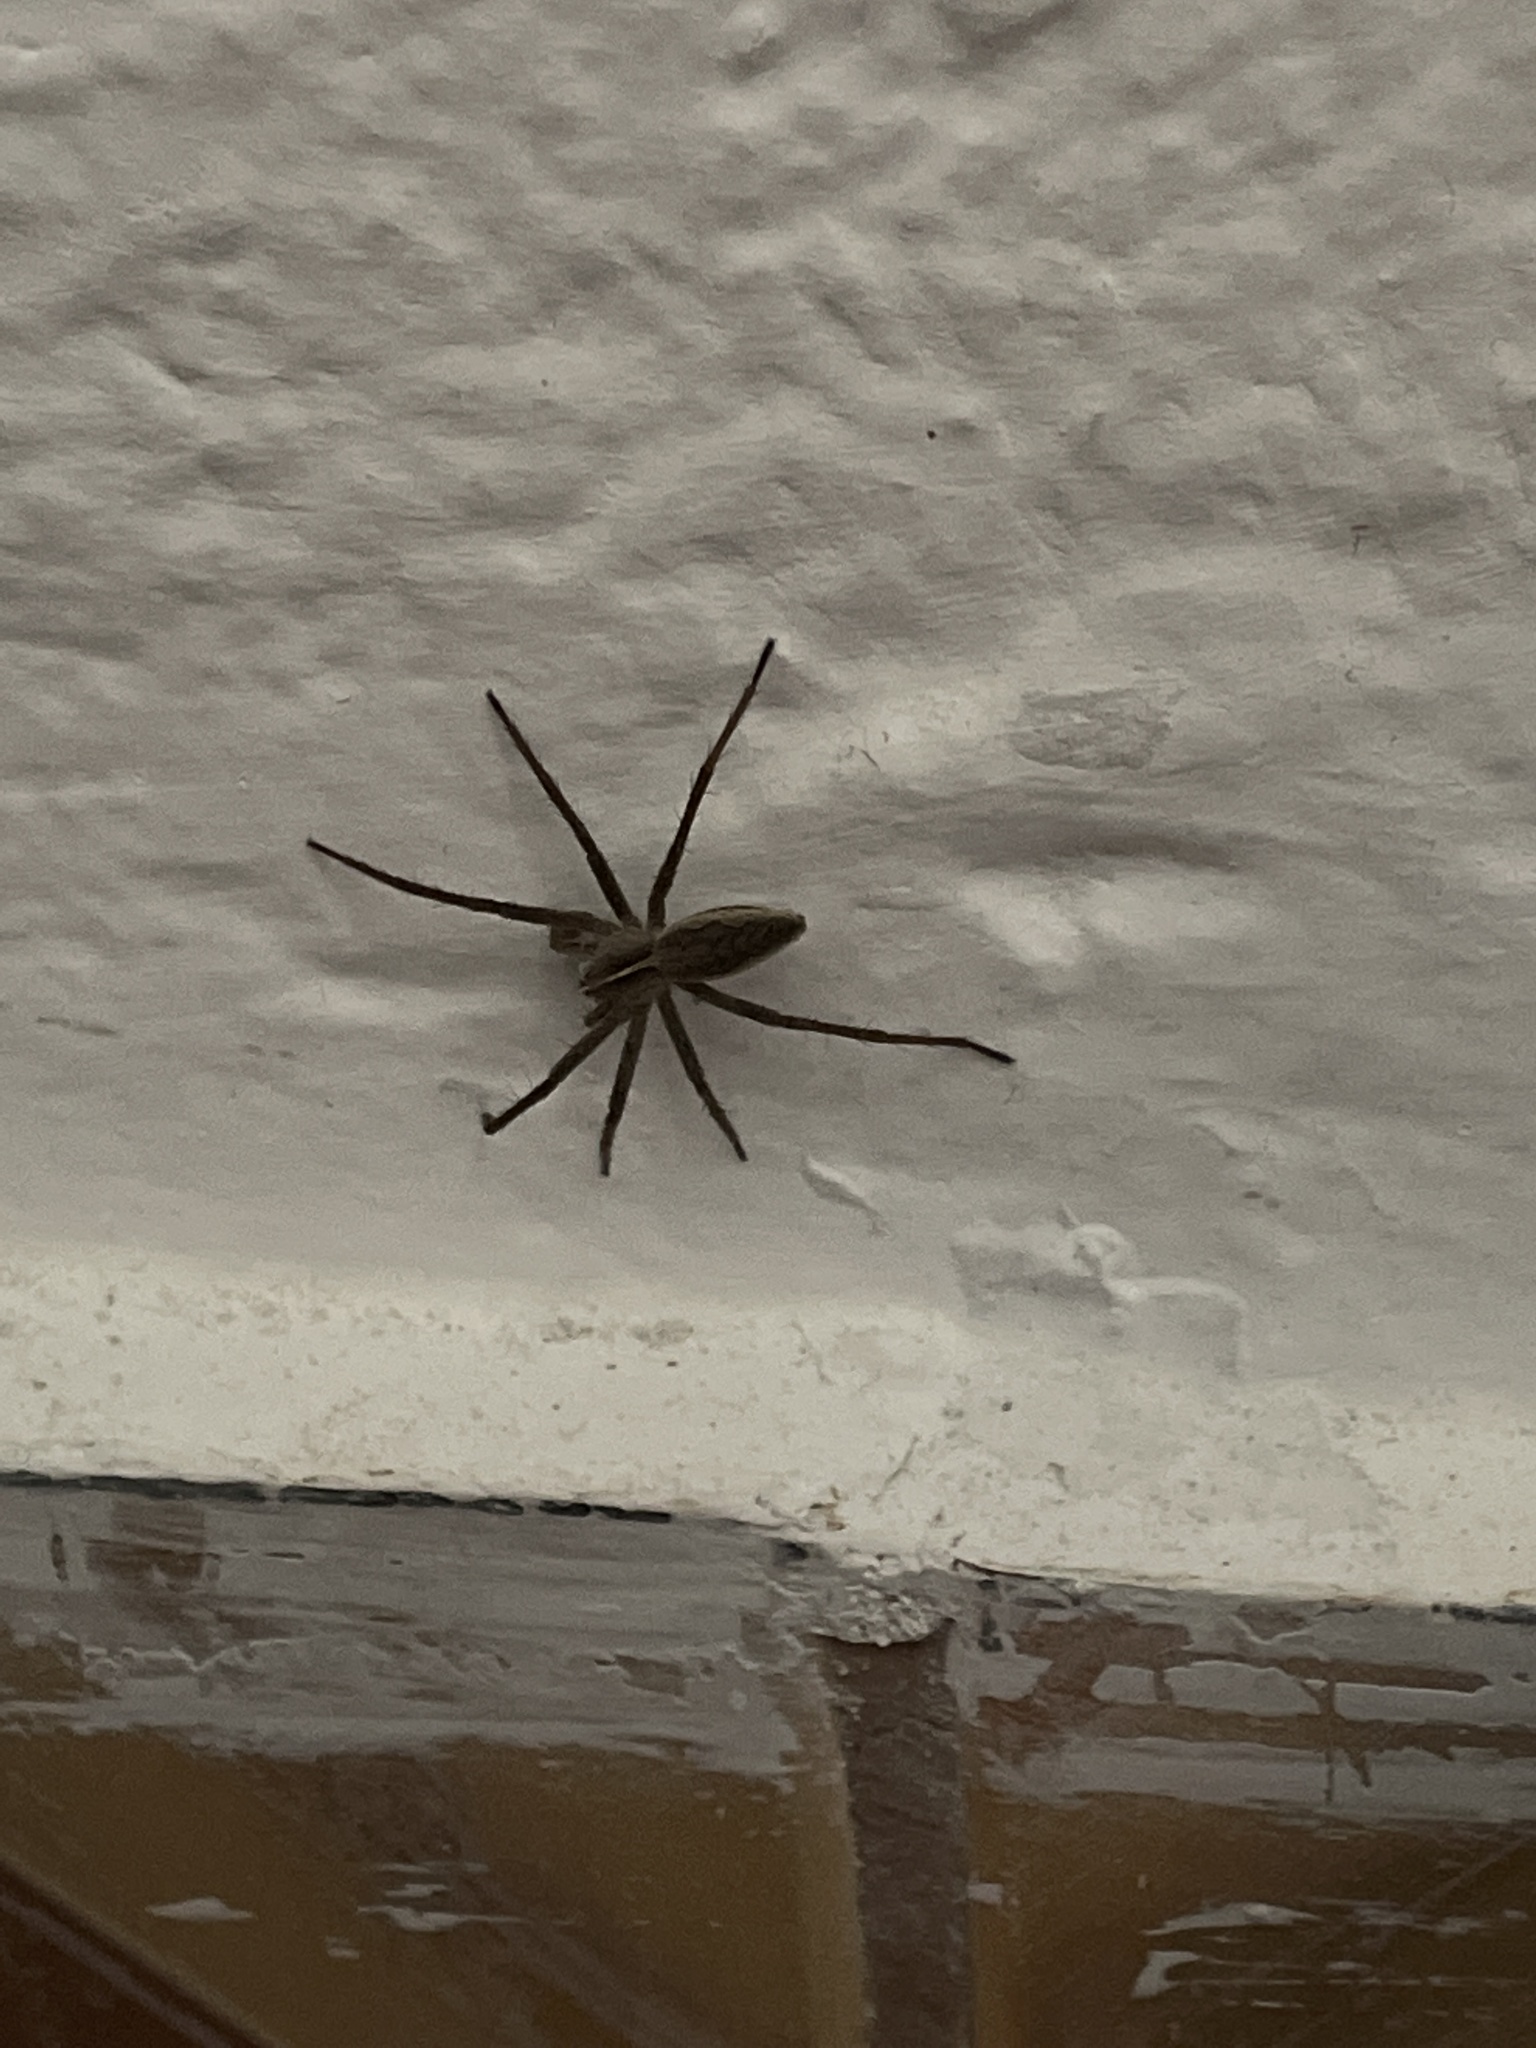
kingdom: Animalia
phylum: Arthropoda
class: Arachnida
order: Araneae
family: Pisauridae
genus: Pisaura
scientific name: Pisaura mirabilis
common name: Tent spider
